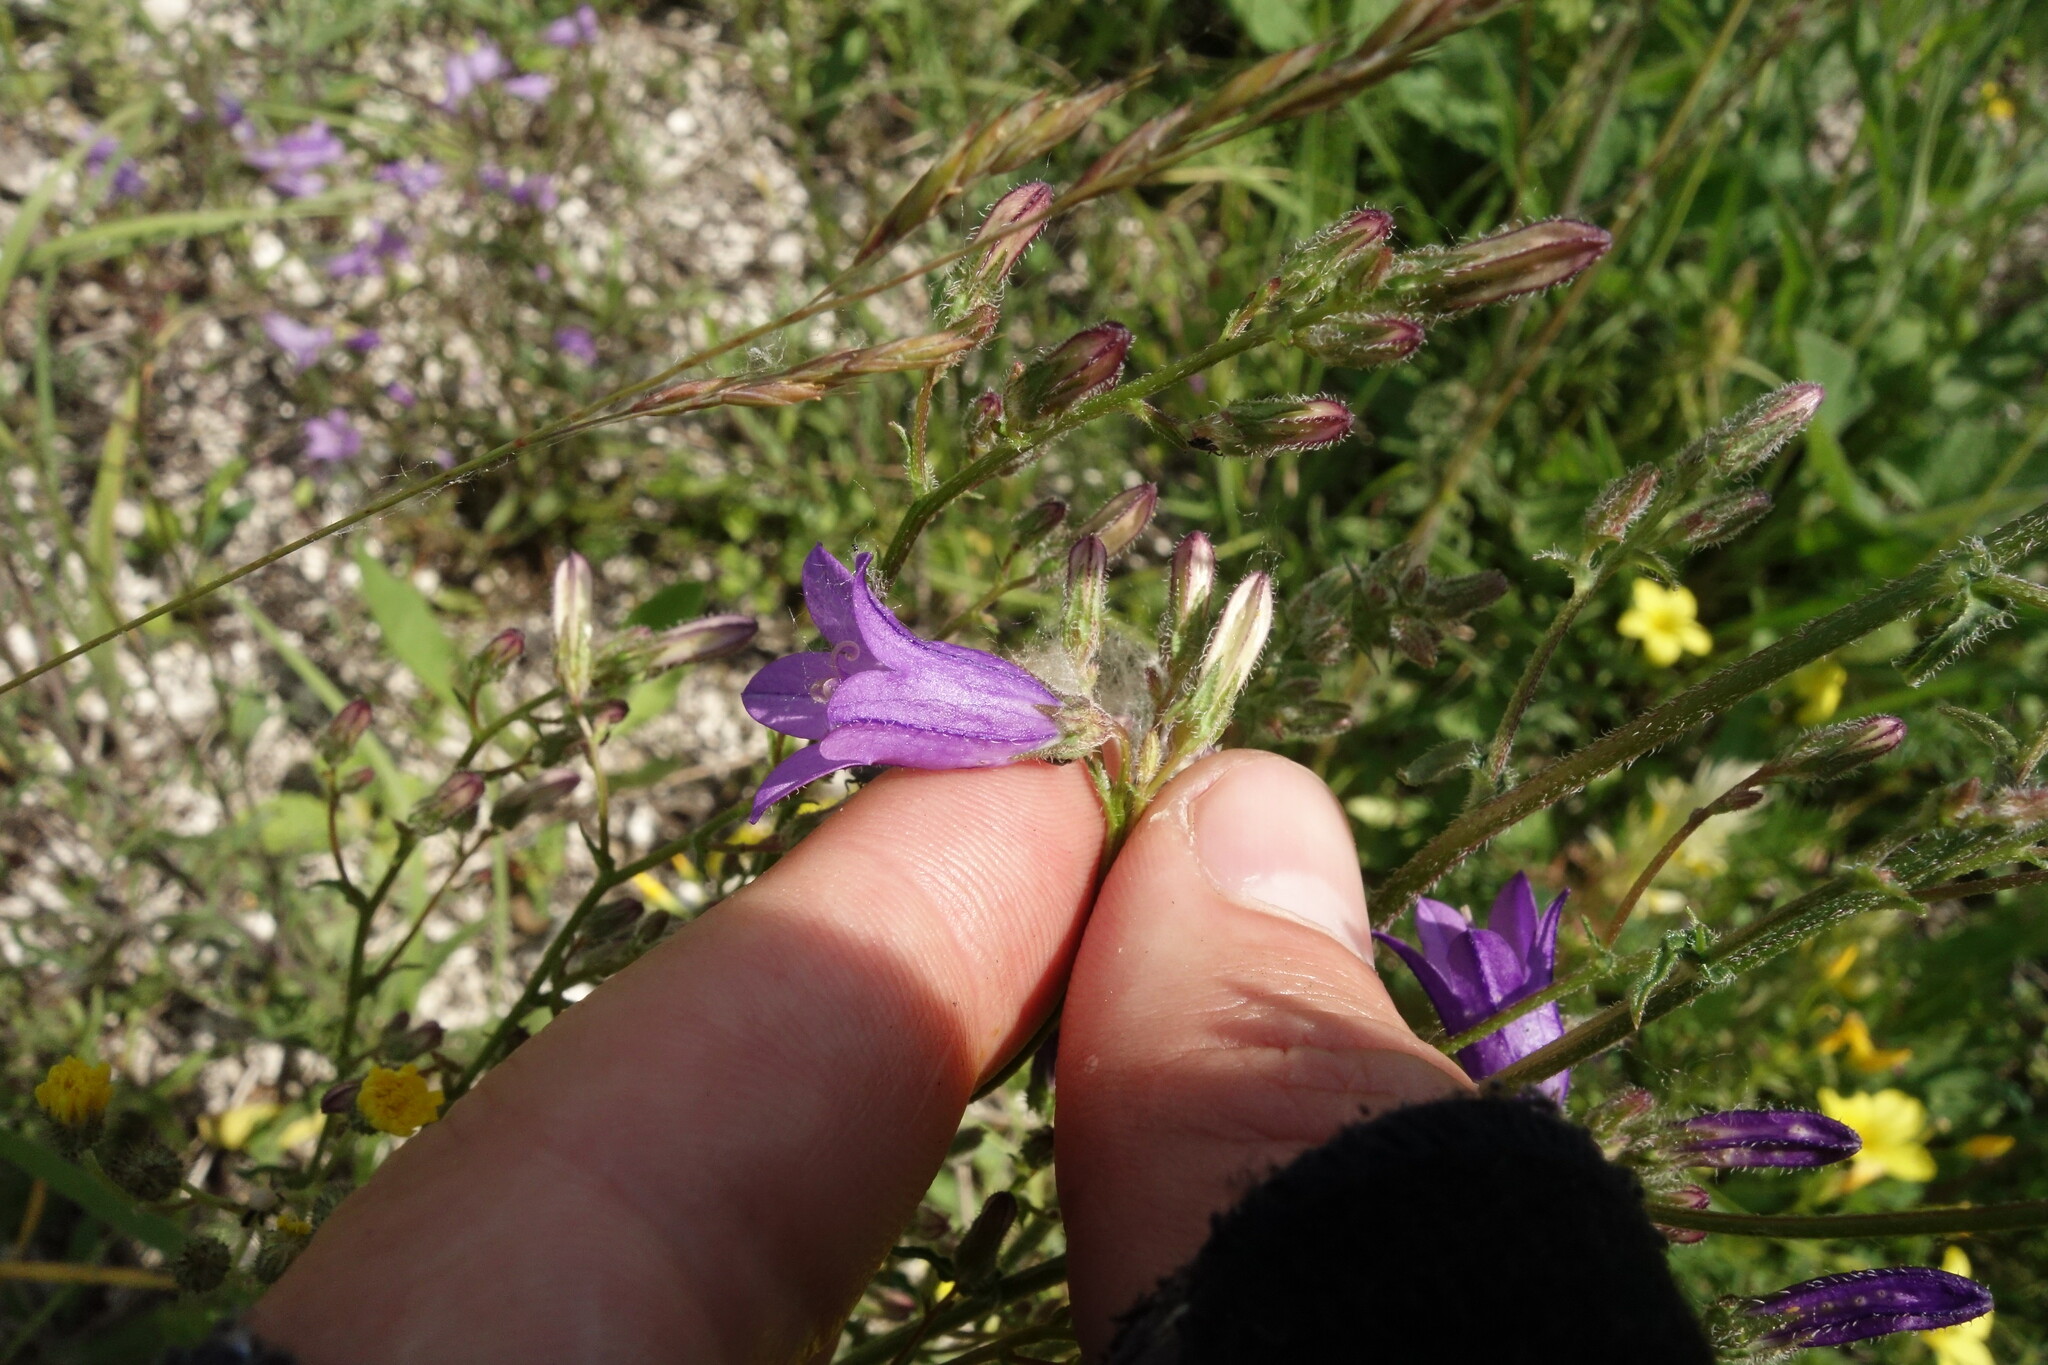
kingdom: Plantae
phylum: Tracheophyta
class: Magnoliopsida
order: Asterales
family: Campanulaceae
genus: Campanula
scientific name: Campanula sibirica
